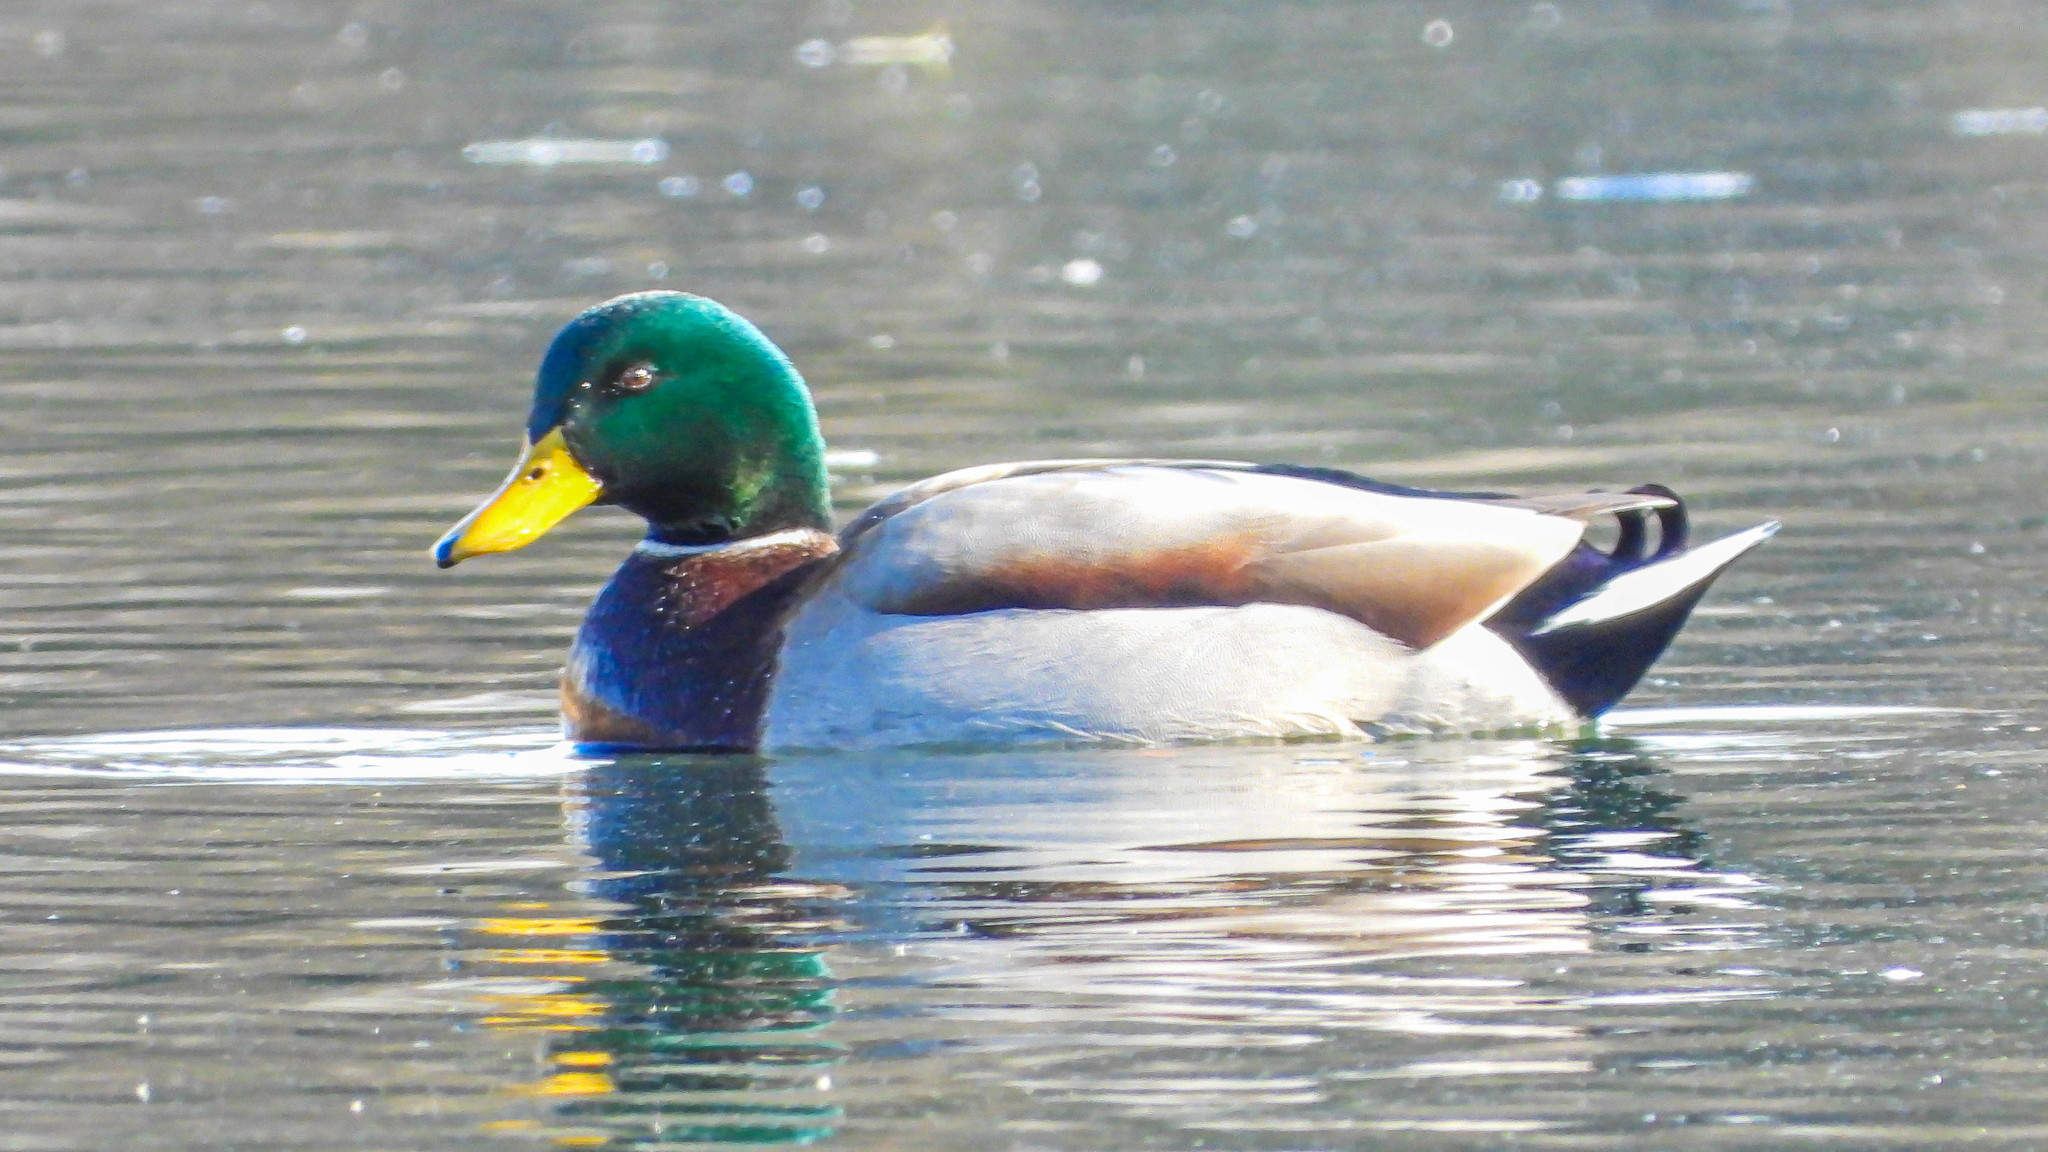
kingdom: Animalia
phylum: Chordata
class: Aves
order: Anseriformes
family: Anatidae
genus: Anas
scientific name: Anas platyrhynchos
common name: Mallard
